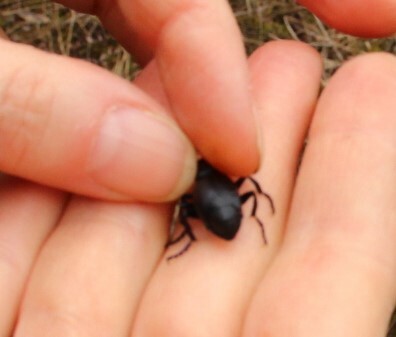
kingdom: Animalia
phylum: Arthropoda
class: Insecta
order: Coleoptera
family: Meloidae
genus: Meloe
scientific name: Meloe proscarabaeus
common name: Black oil-beetle
